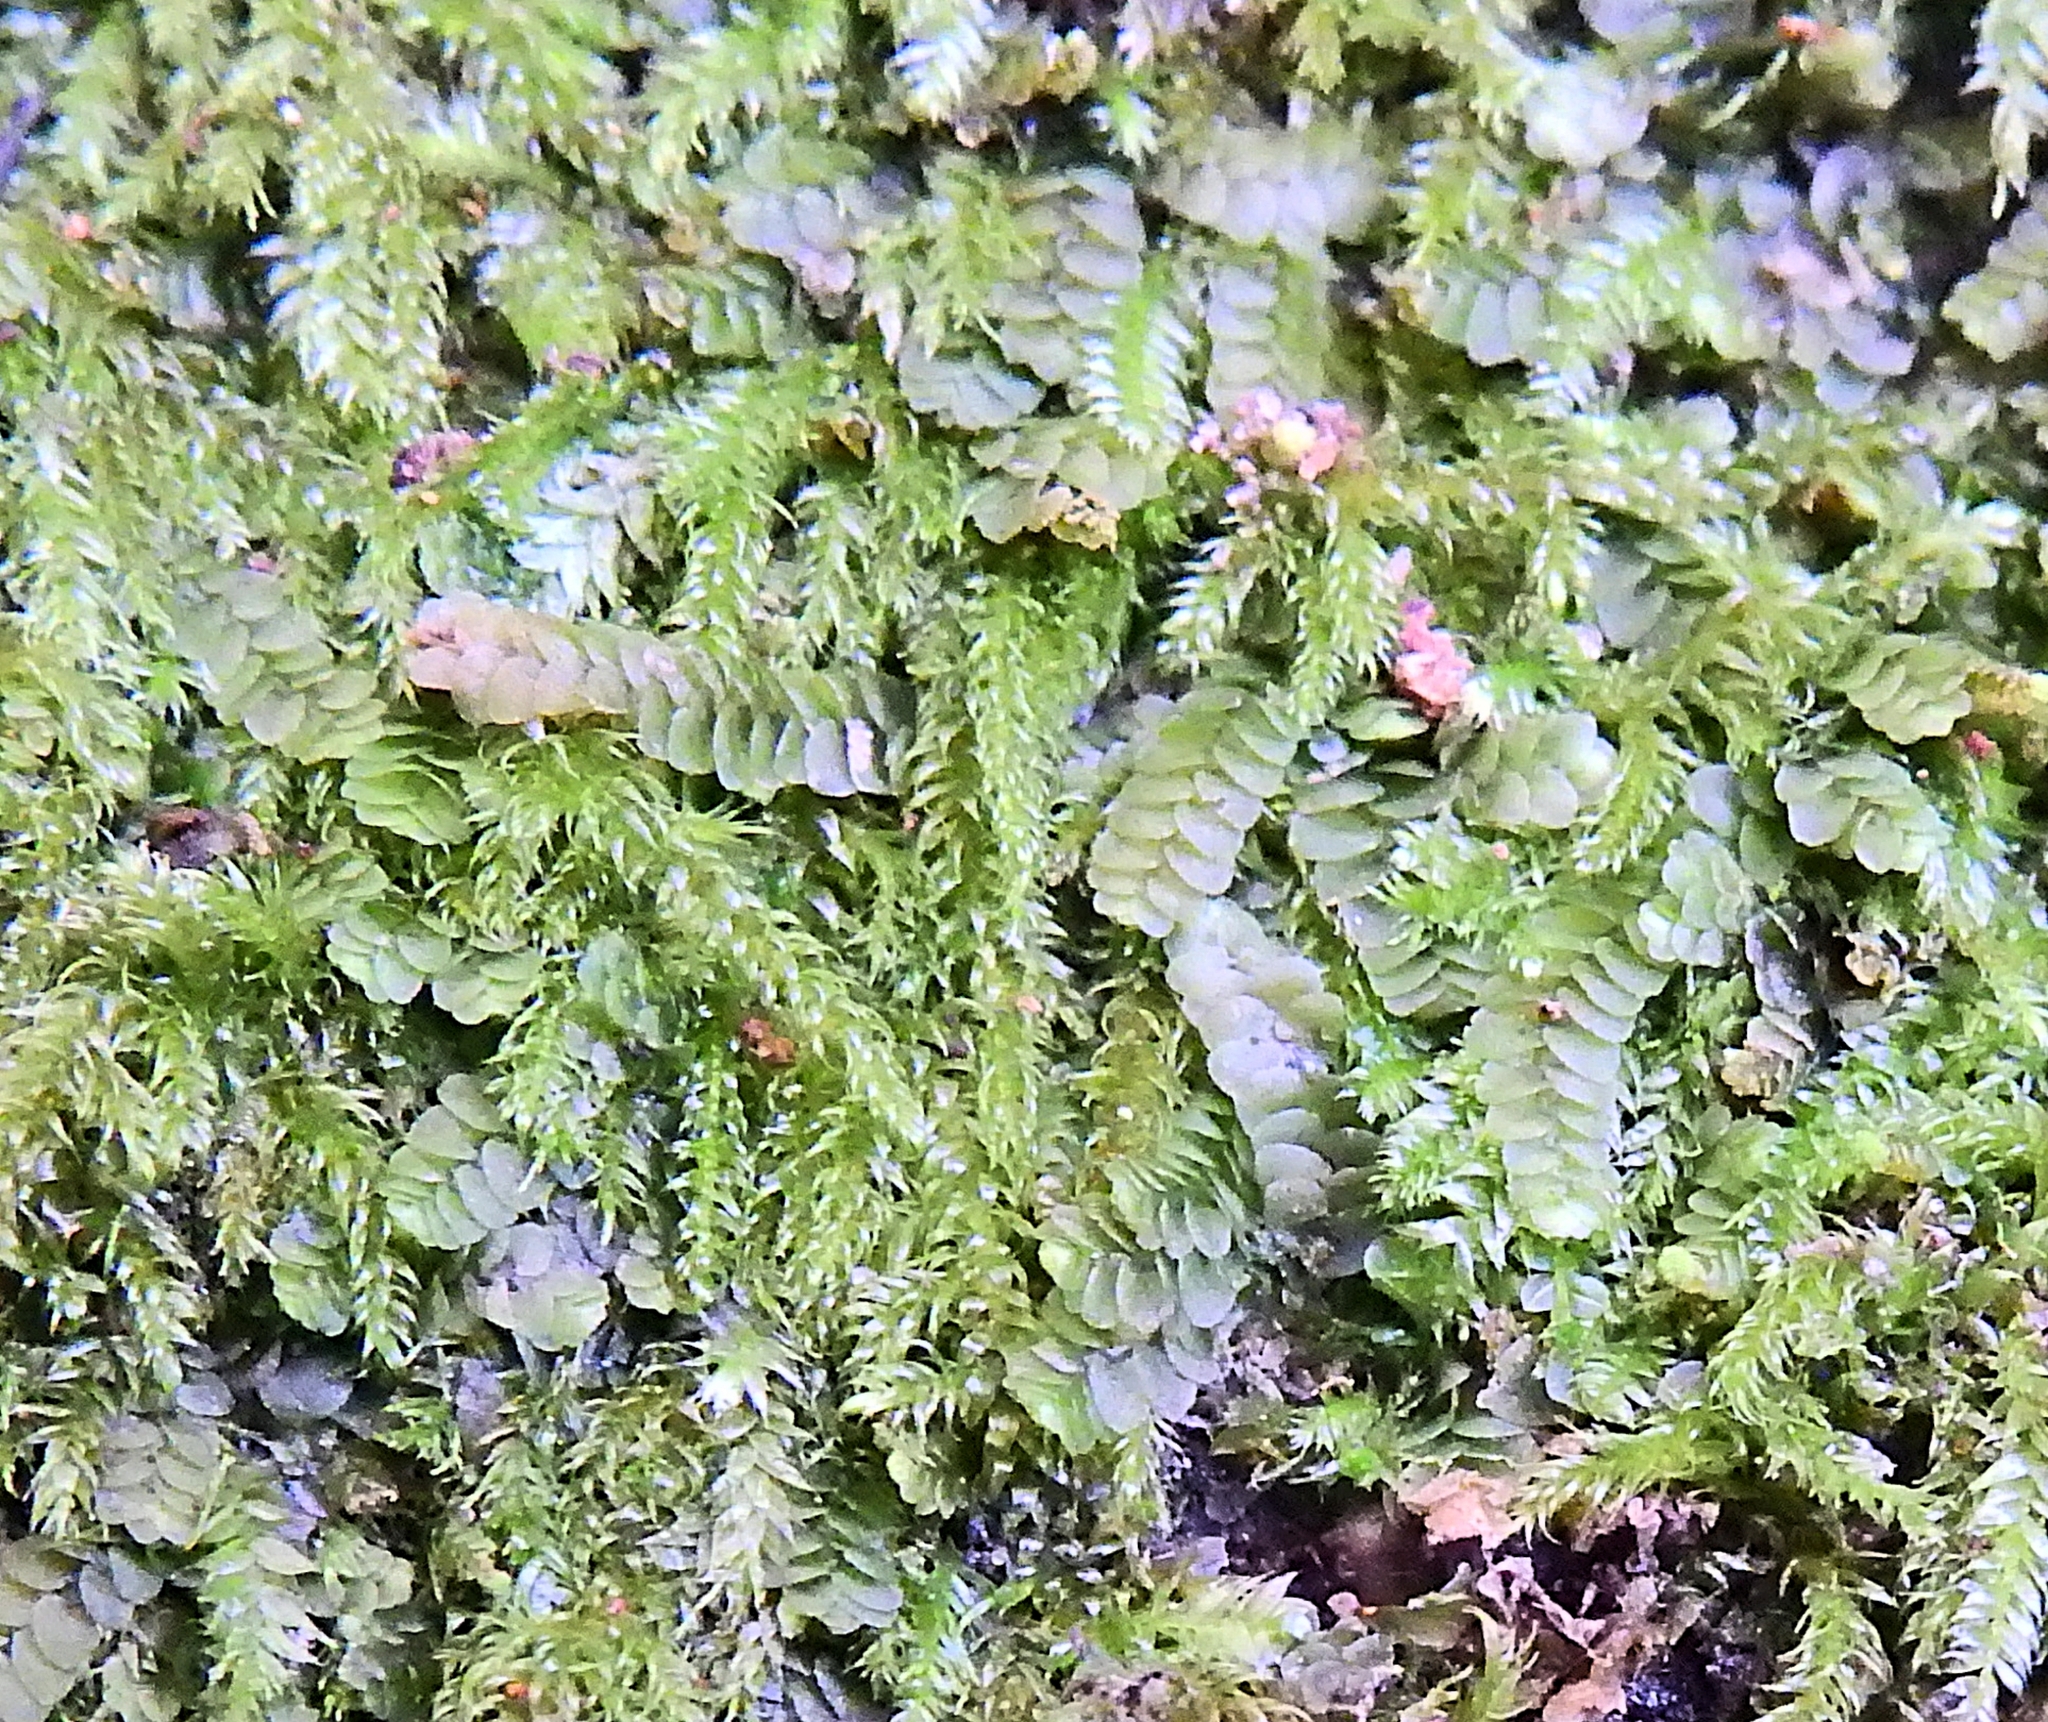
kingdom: Plantae
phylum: Marchantiophyta
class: Jungermanniopsida
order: Jungermanniales
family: Calypogeiaceae
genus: Calypogeia
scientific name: Calypogeia fissa
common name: Common pouchwort
